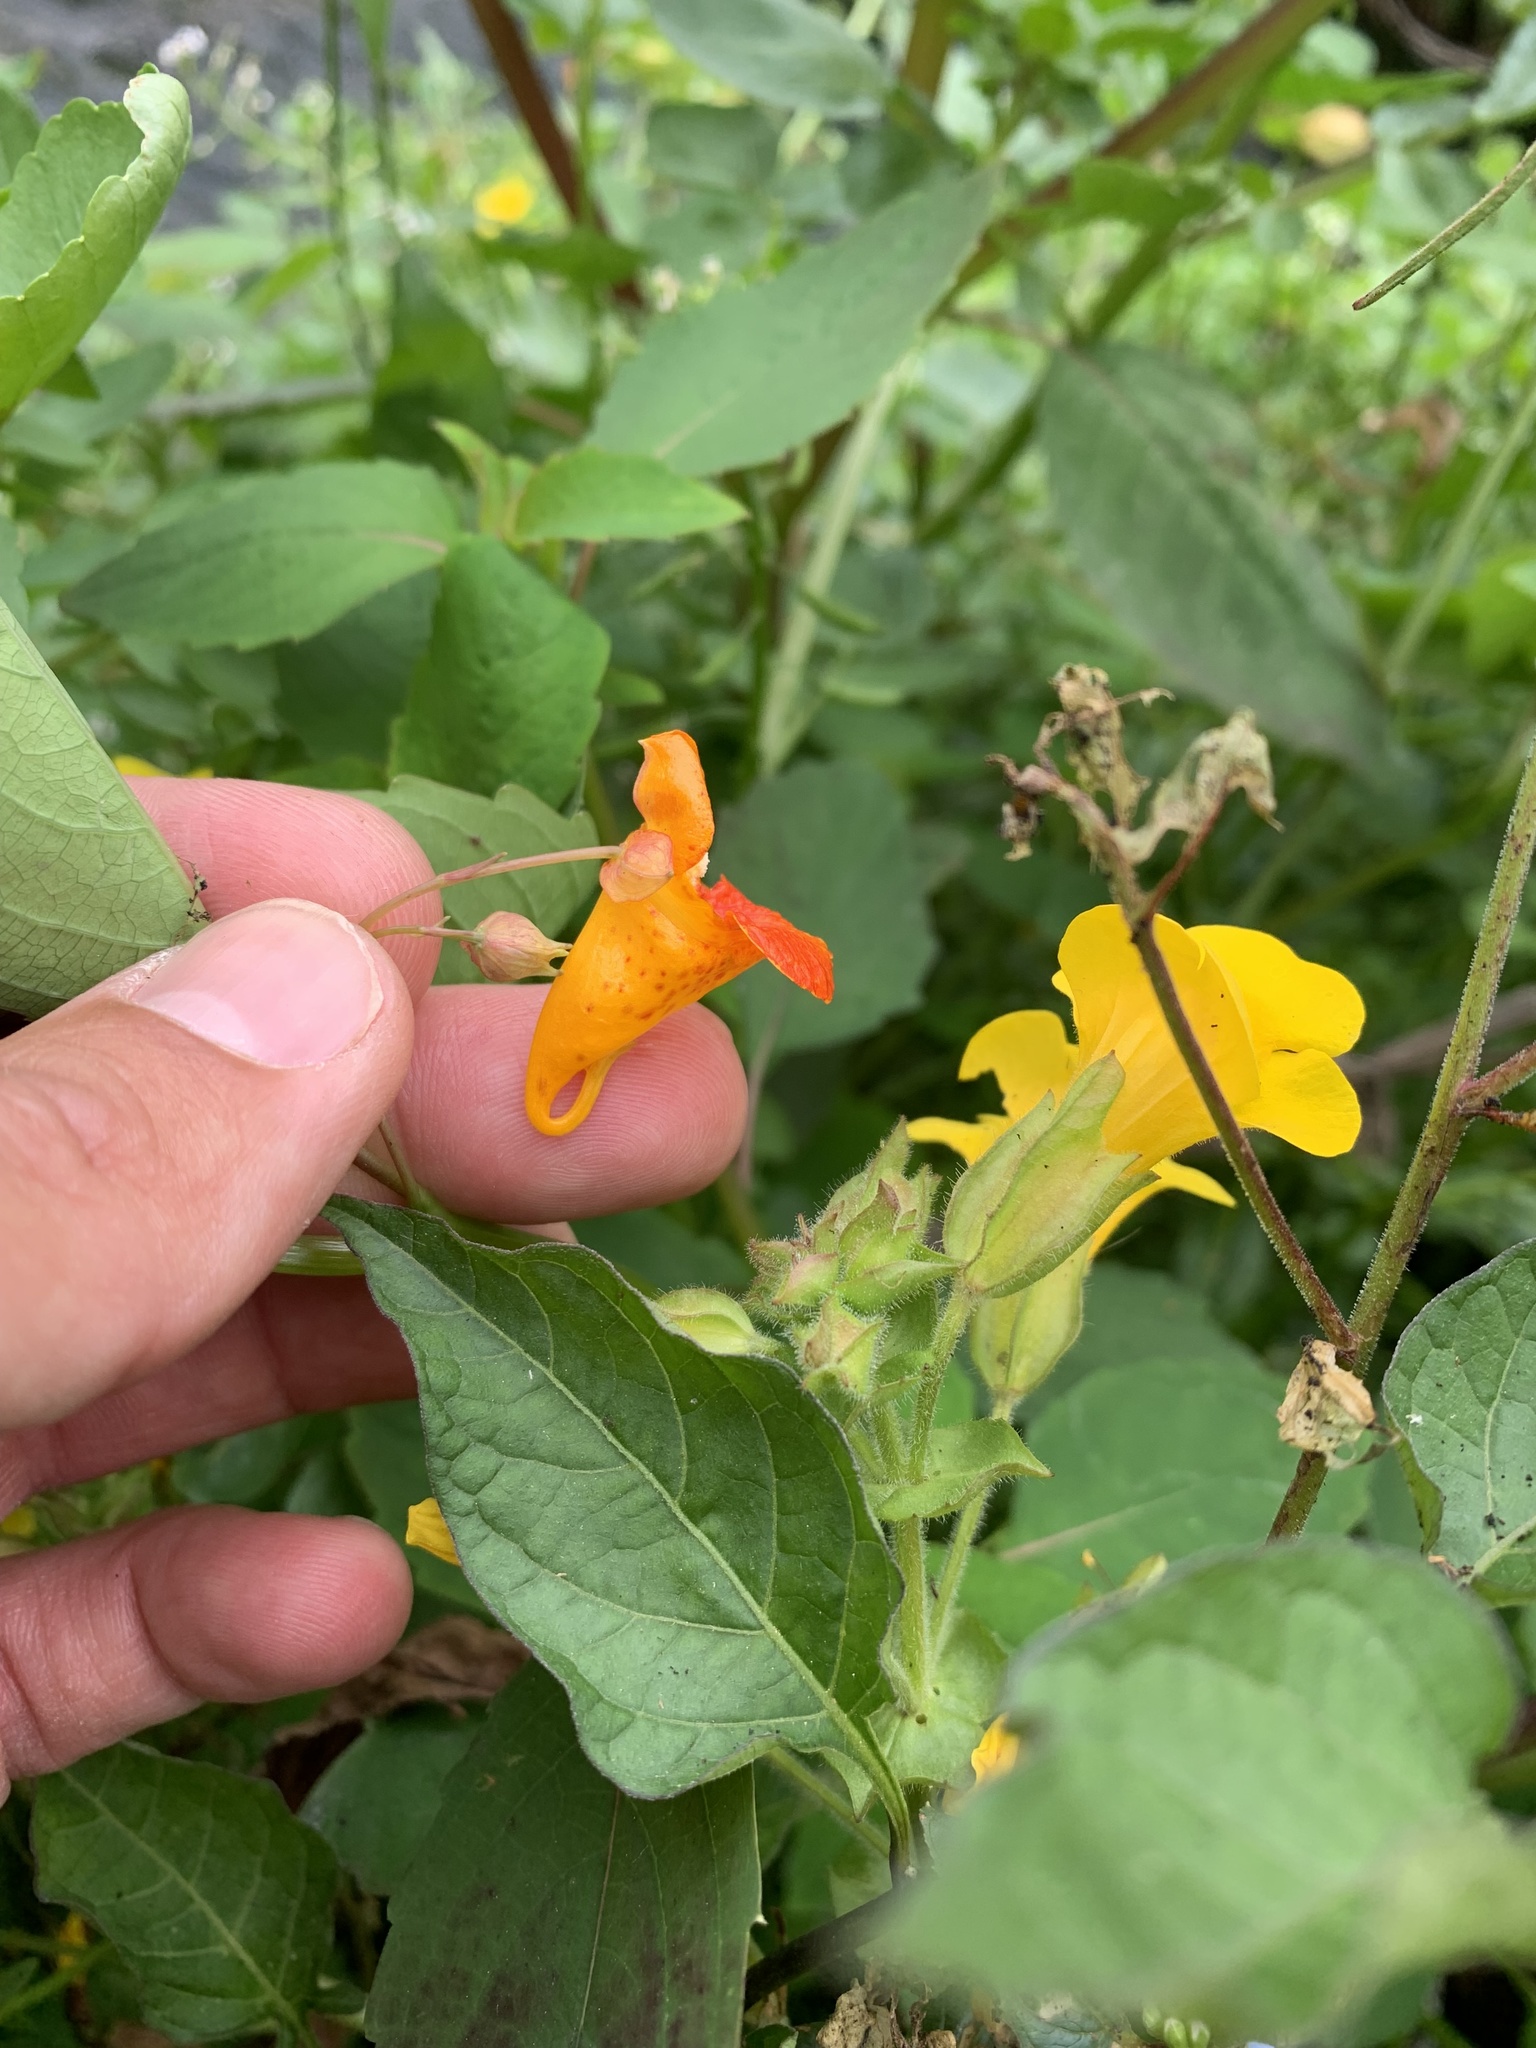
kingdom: Plantae
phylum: Tracheophyta
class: Magnoliopsida
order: Ericales
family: Balsaminaceae
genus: Impatiens
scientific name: Impatiens capensis
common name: Orange balsam
